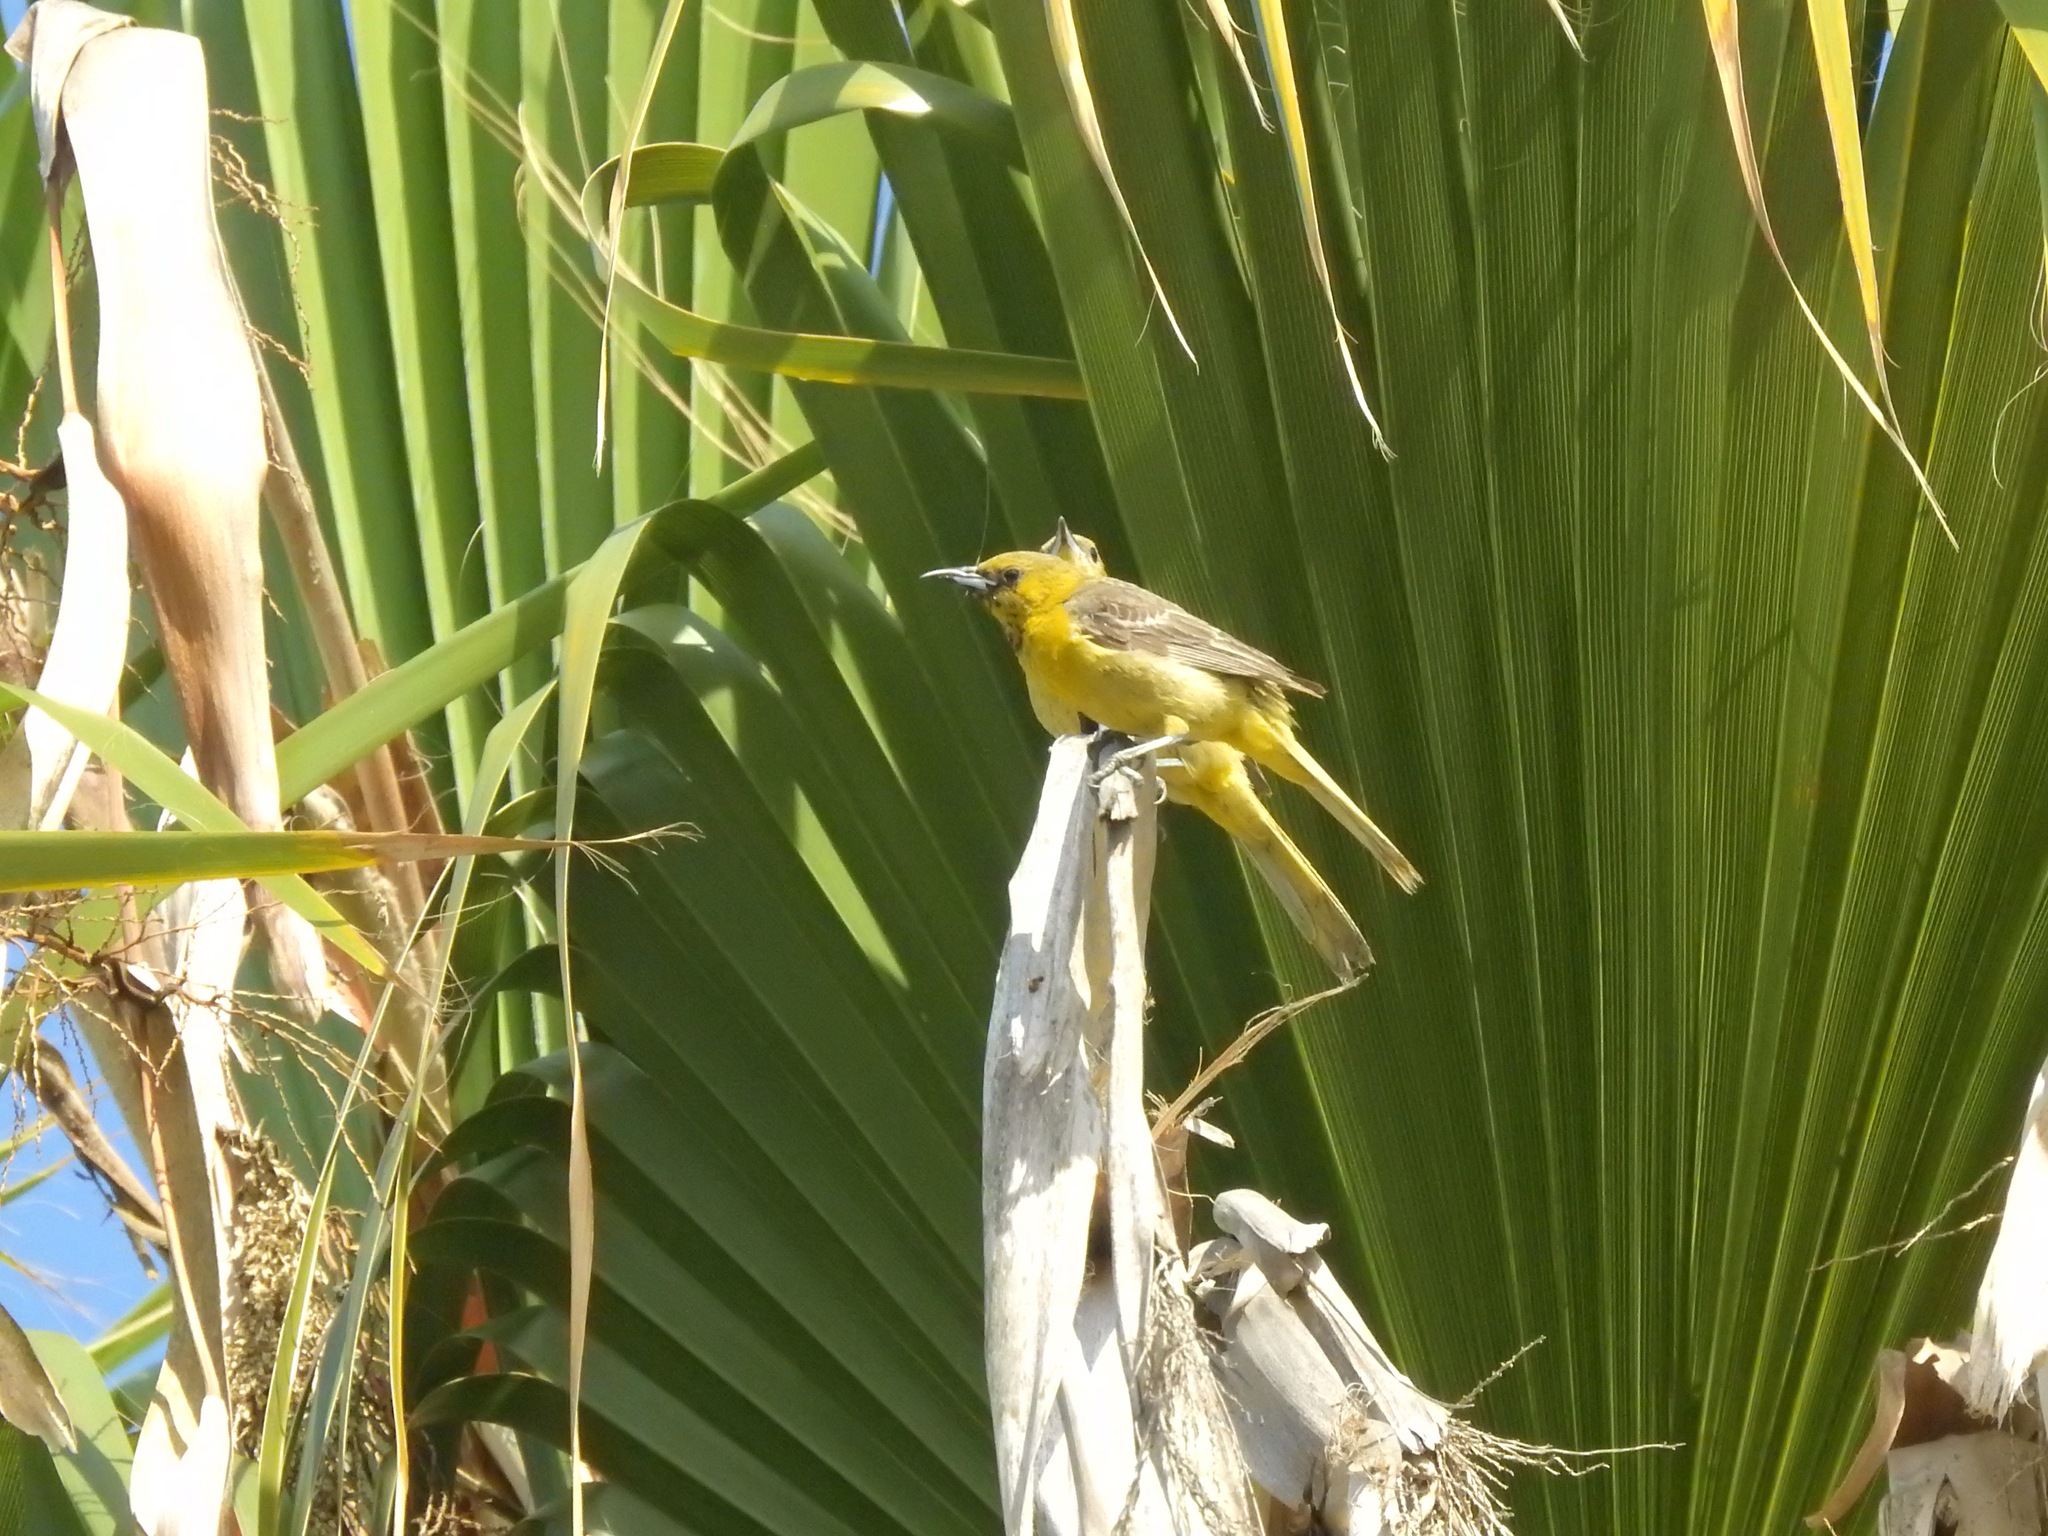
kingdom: Animalia
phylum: Chordata
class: Aves
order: Passeriformes
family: Icteridae
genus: Icterus
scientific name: Icterus cucullatus
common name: Hooded oriole
